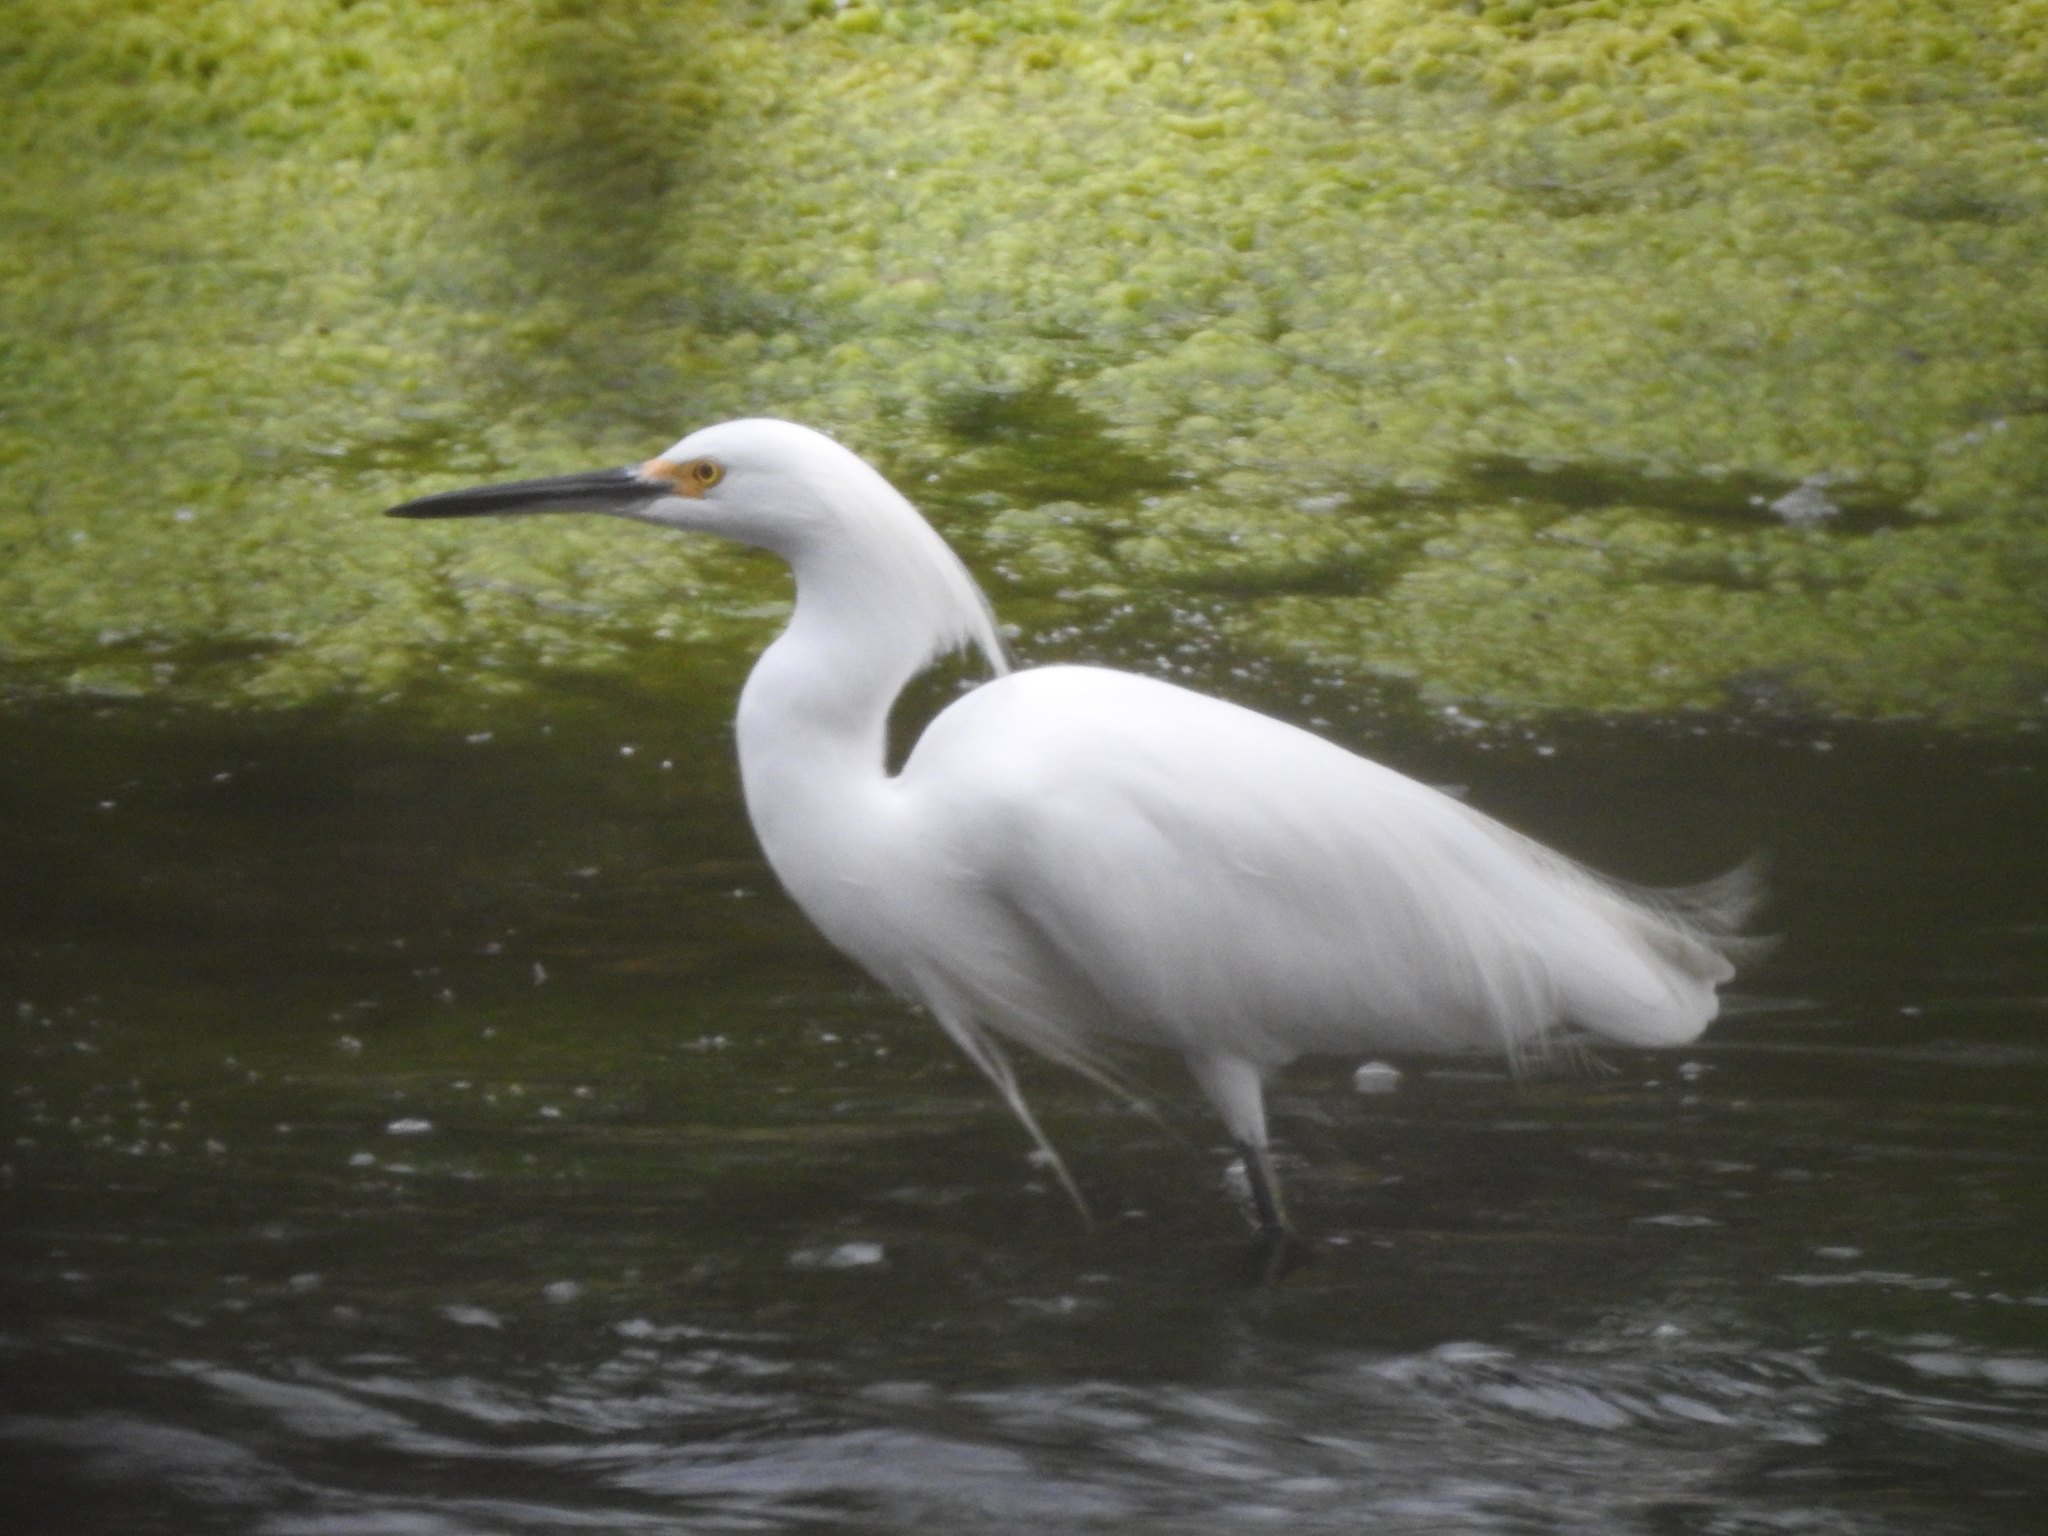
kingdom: Animalia
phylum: Chordata
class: Aves
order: Pelecaniformes
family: Ardeidae
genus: Egretta
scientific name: Egretta thula
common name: Snowy egret
